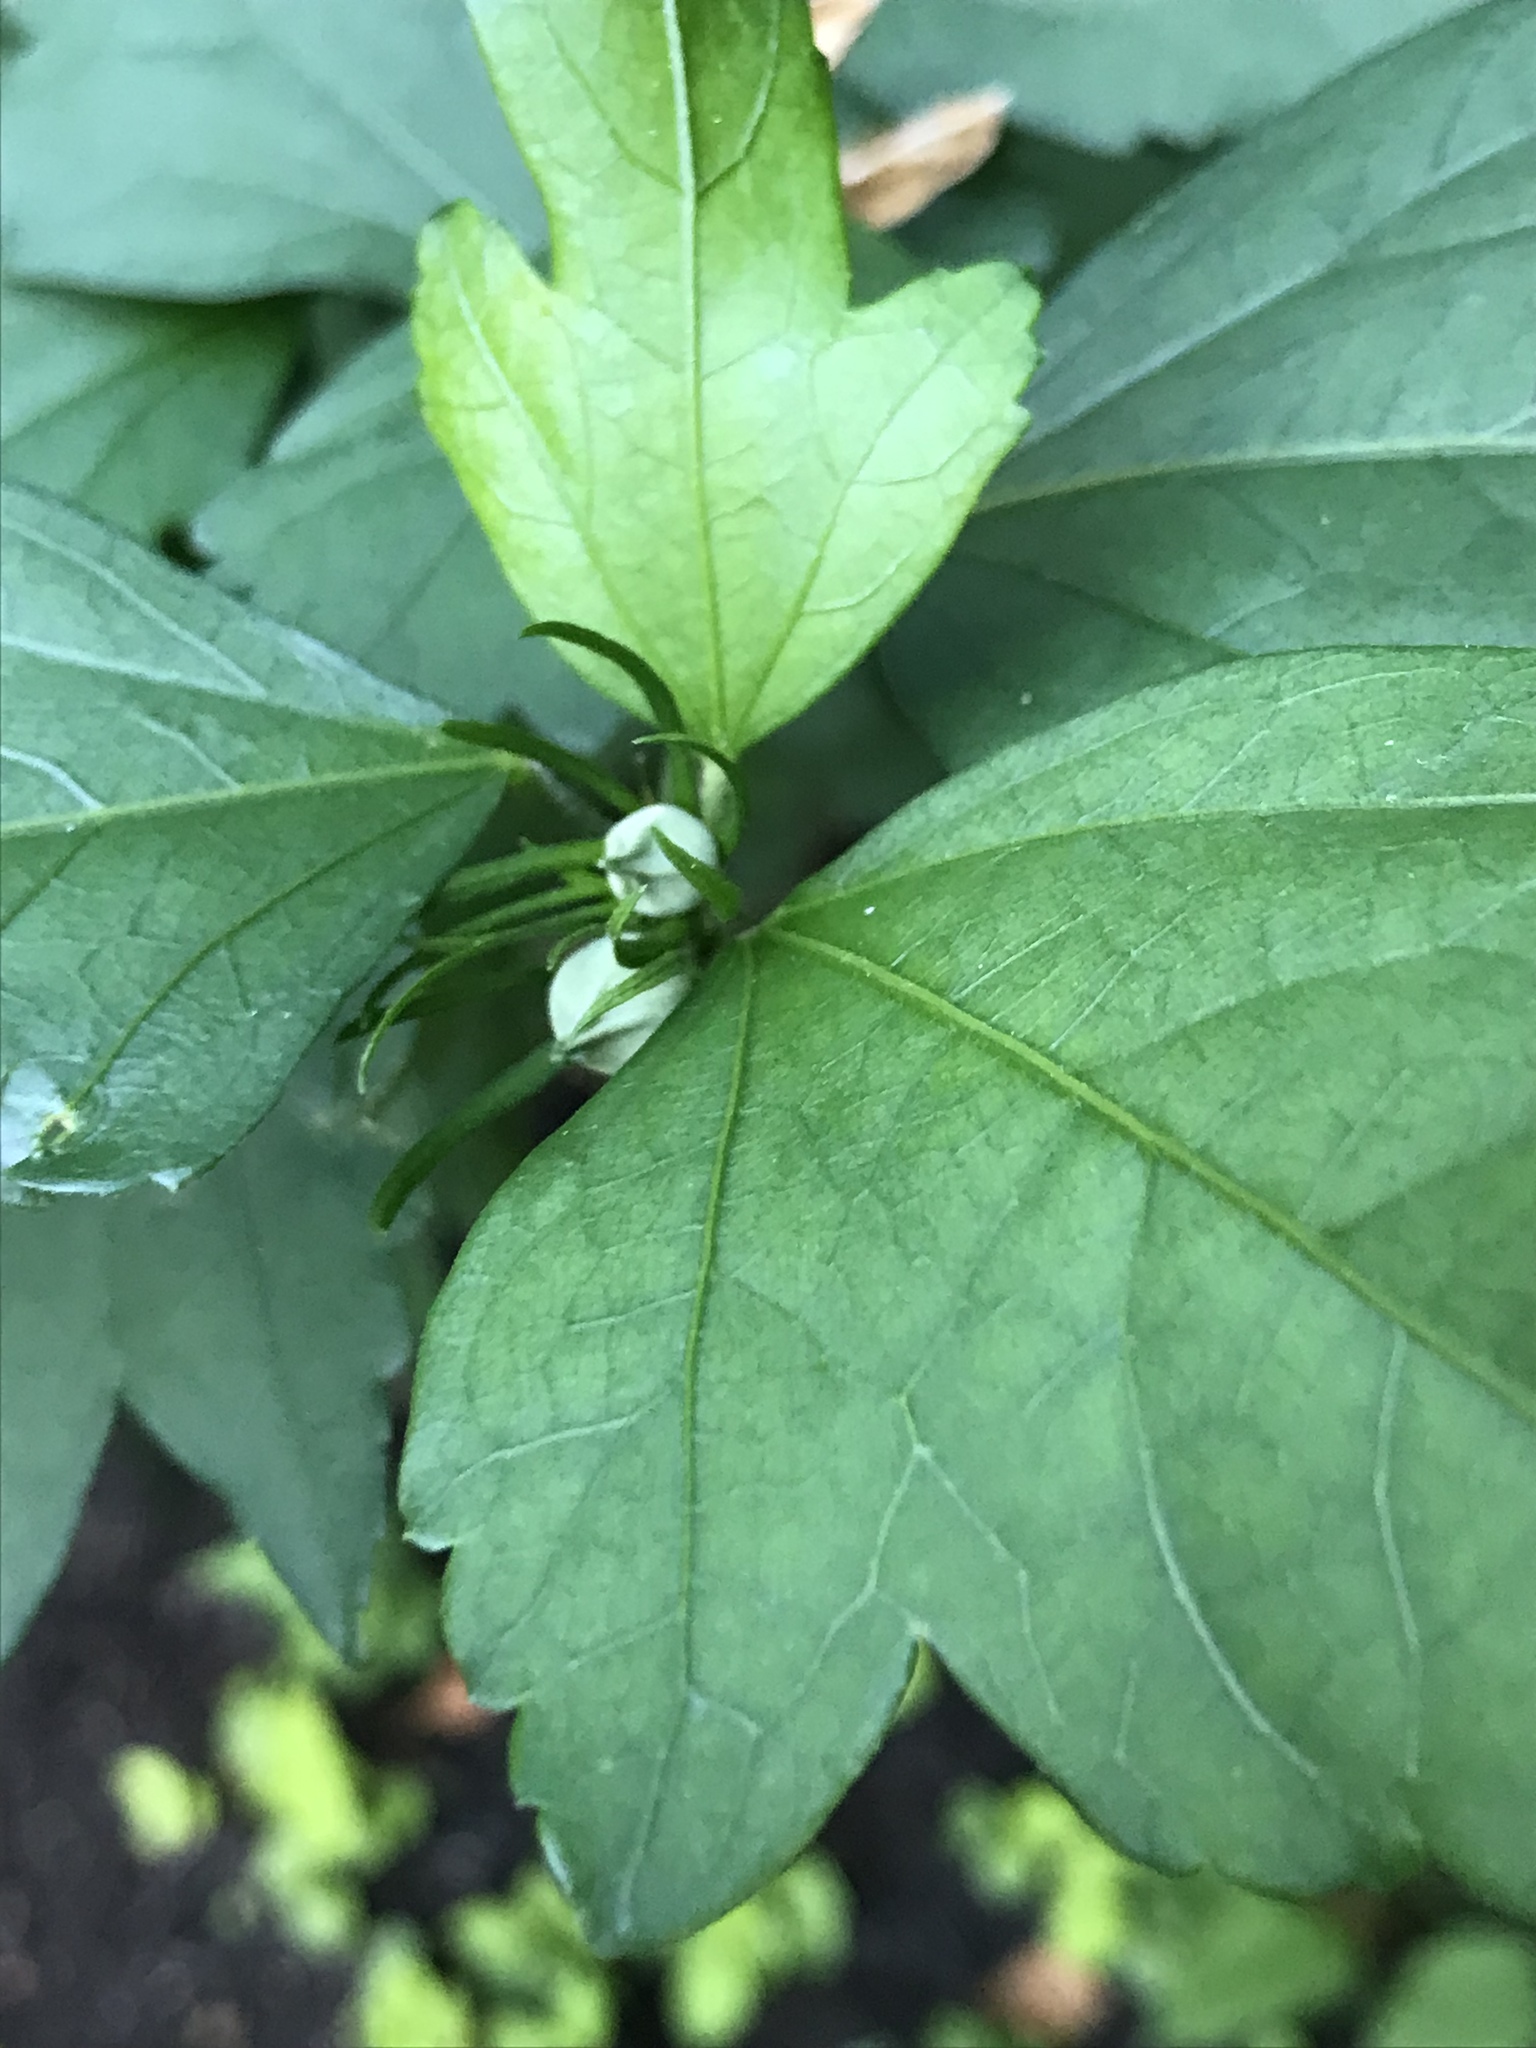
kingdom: Plantae
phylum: Tracheophyta
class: Magnoliopsida
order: Malvales
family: Malvaceae
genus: Hibiscus
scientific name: Hibiscus syriacus
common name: Syrian ketmia
